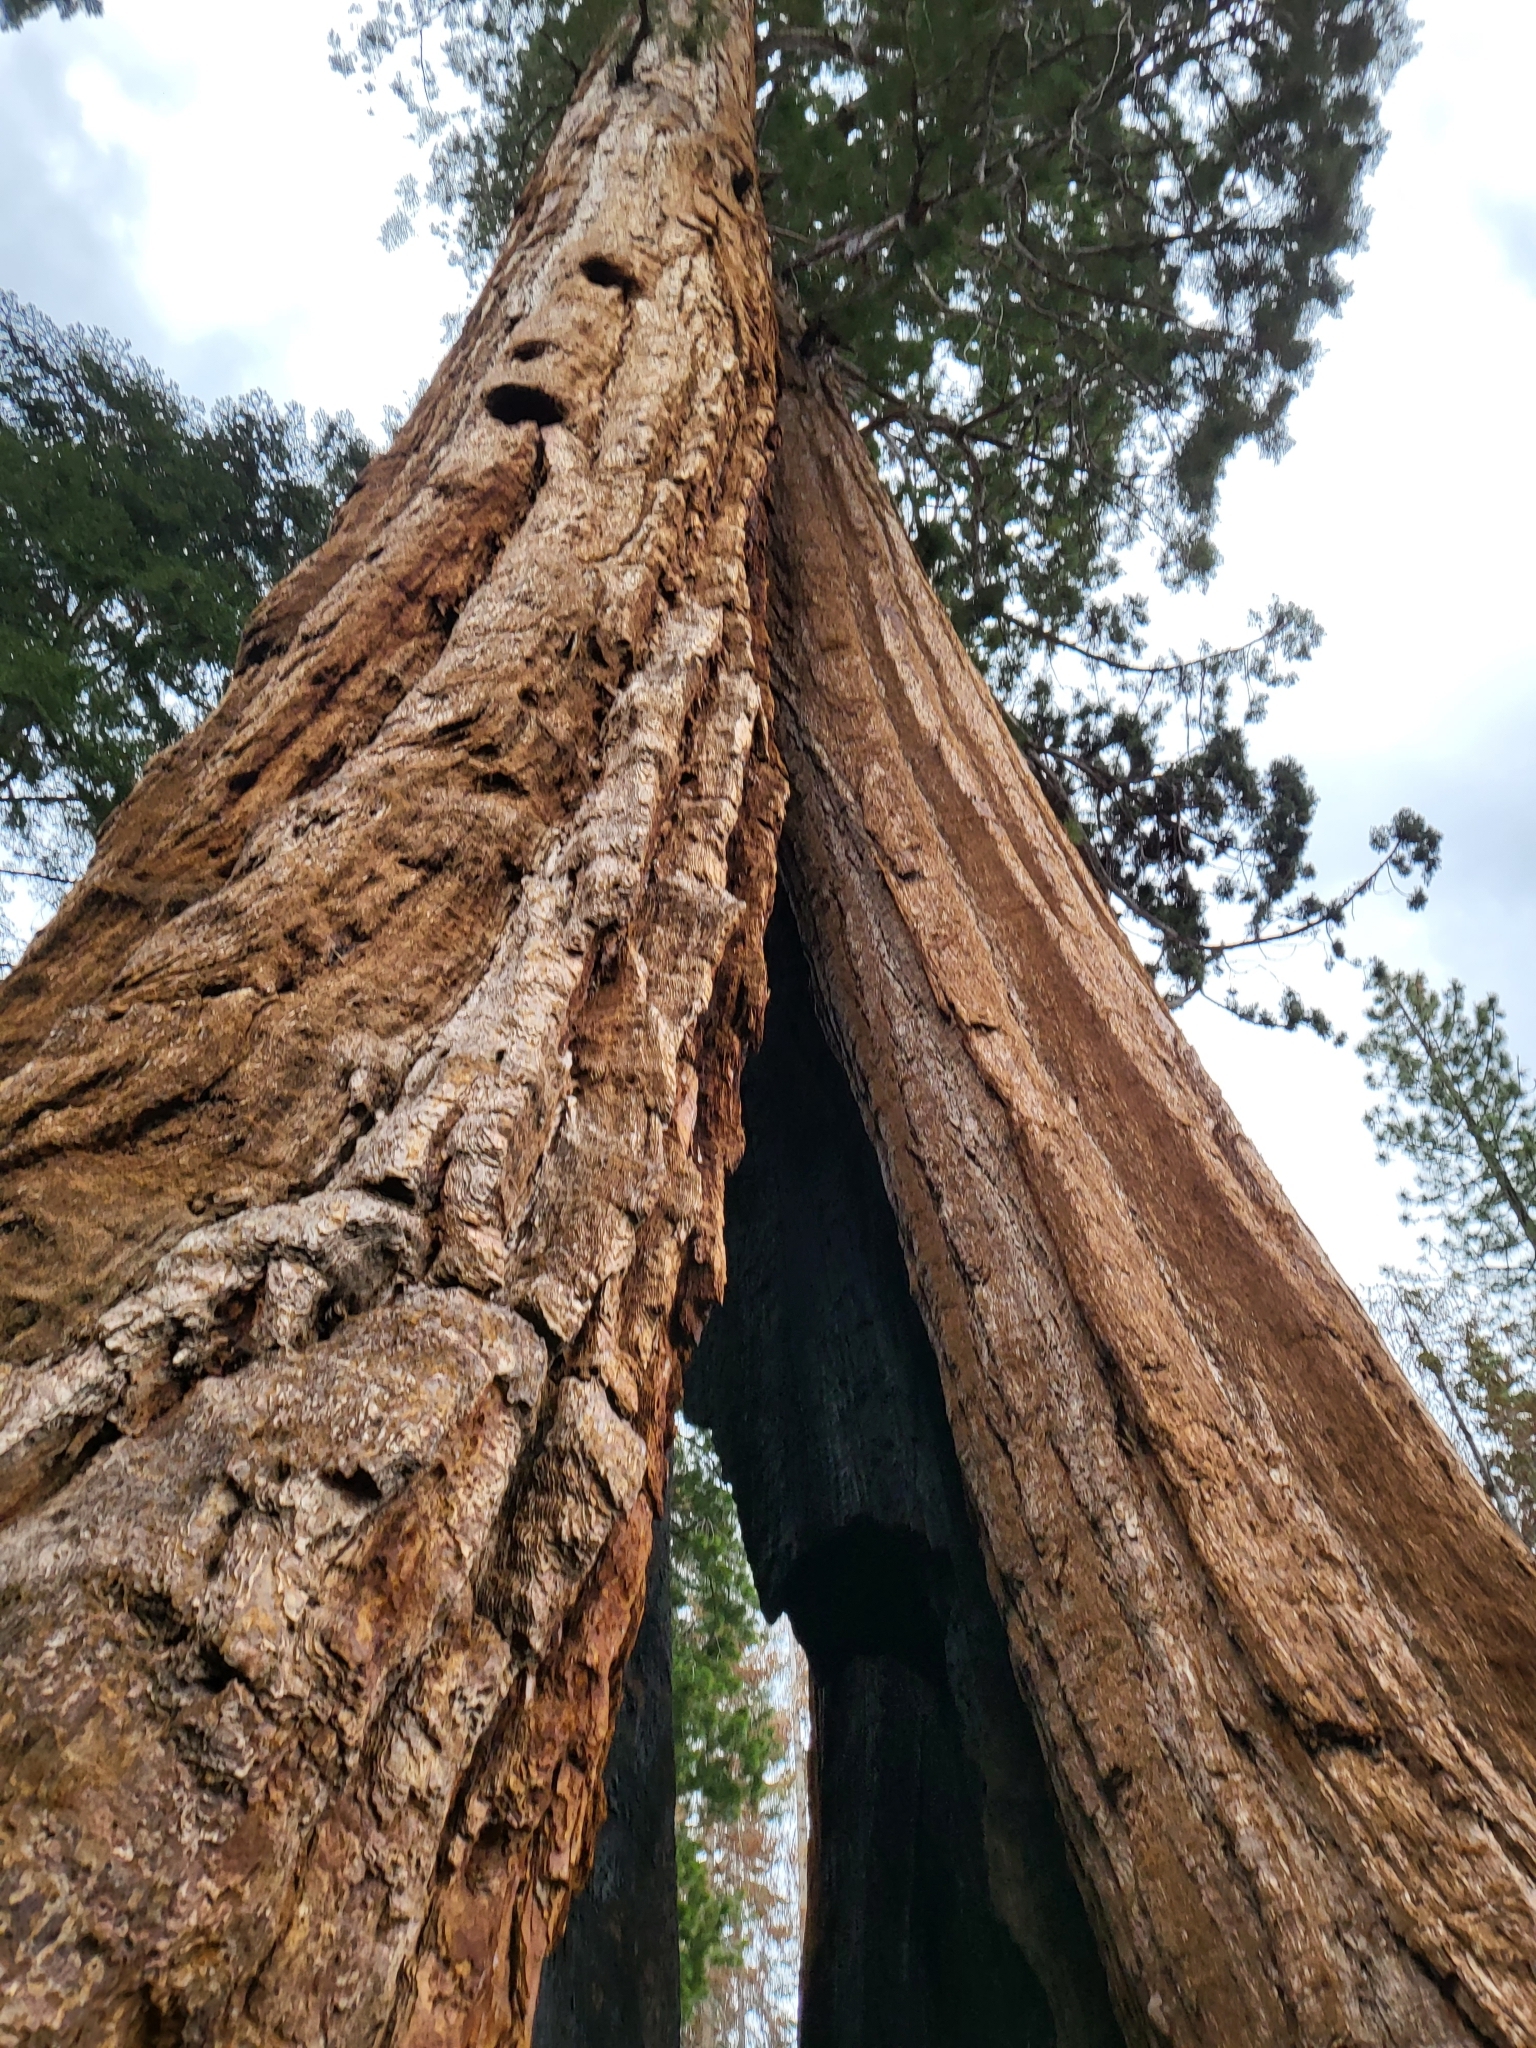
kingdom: Plantae
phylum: Tracheophyta
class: Pinopsida
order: Pinales
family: Cupressaceae
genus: Sequoiadendron
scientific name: Sequoiadendron giganteum
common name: Wellingtonia
